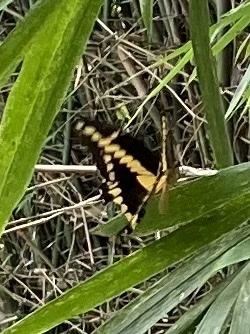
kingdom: Animalia
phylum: Arthropoda
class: Insecta
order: Lepidoptera
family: Papilionidae
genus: Papilio
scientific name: Papilio rumiko
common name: Western giant swallowtail
